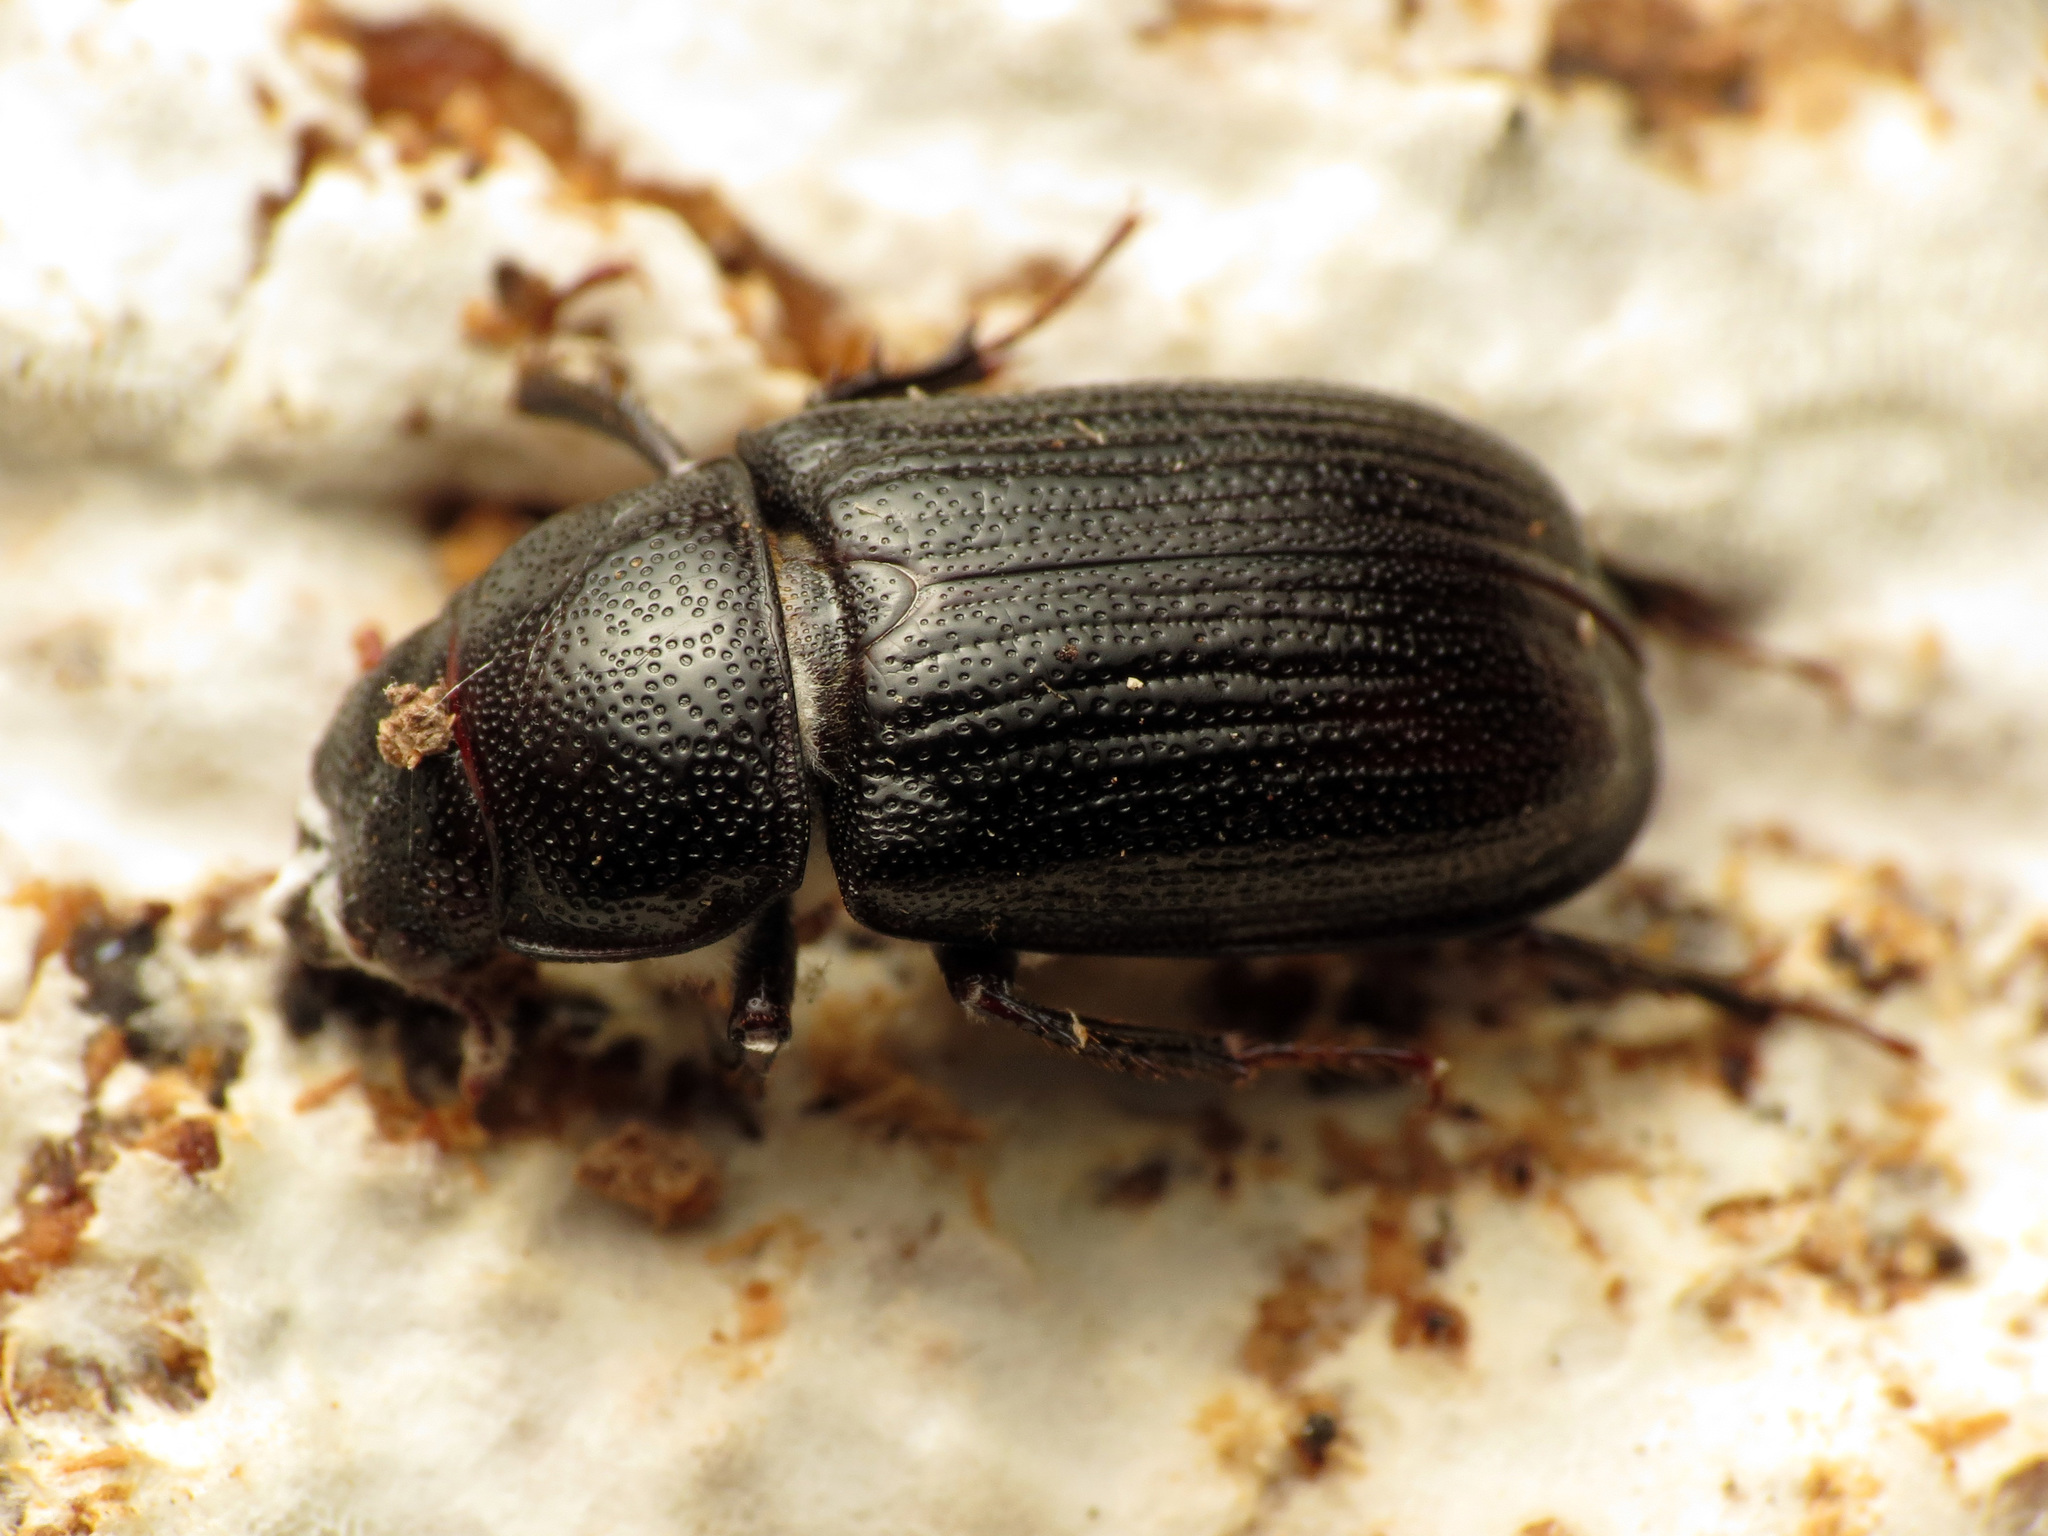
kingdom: Animalia
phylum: Arthropoda
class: Insecta
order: Coleoptera
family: Lucanidae
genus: Ceruchus
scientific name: Ceruchus piceus
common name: Red-rot decay stag beetle
